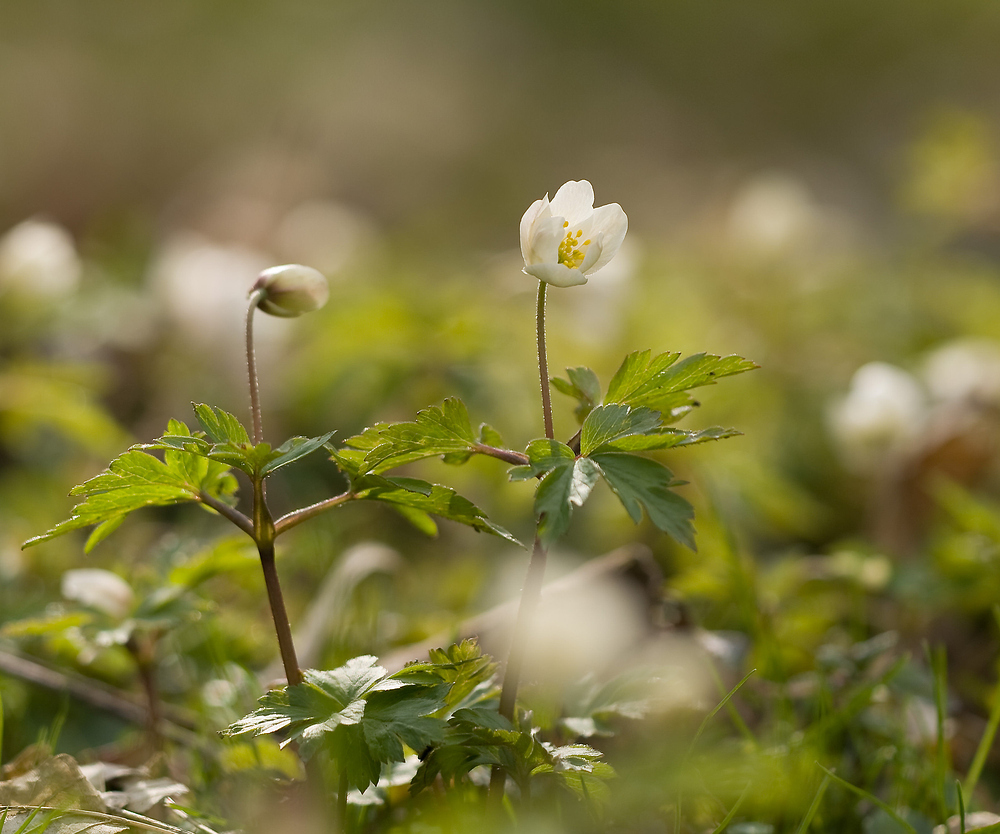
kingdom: Plantae
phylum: Tracheophyta
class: Magnoliopsida
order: Ranunculales
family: Ranunculaceae
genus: Anemone
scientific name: Anemone nemorosa
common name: Wood anemone
